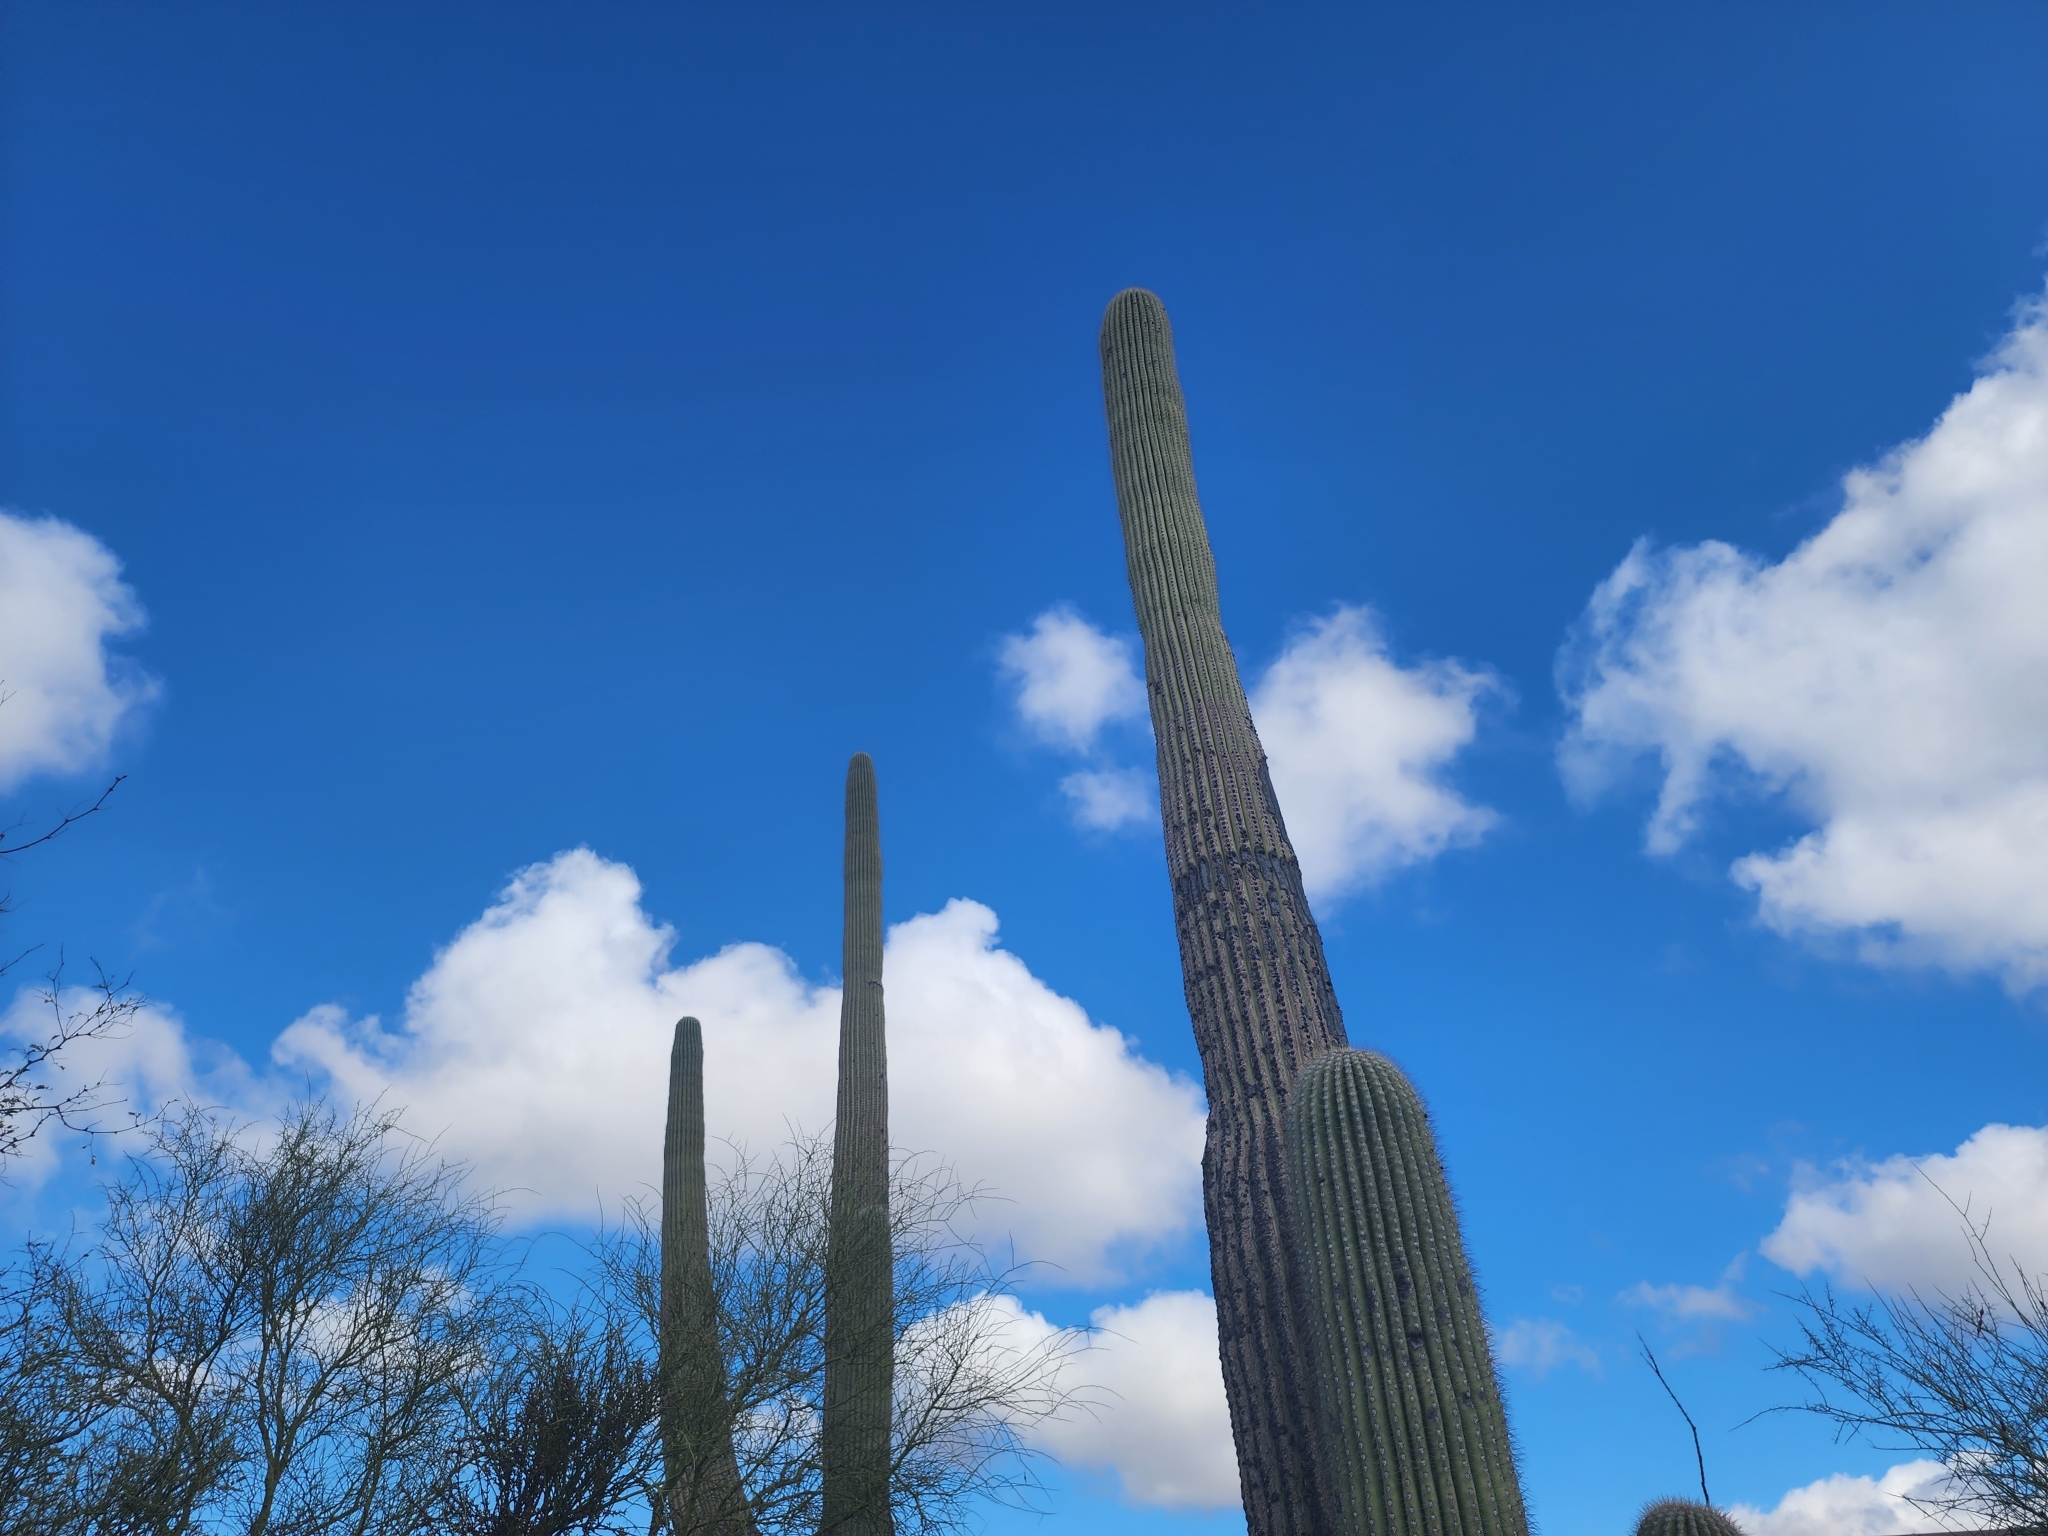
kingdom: Plantae
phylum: Tracheophyta
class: Magnoliopsida
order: Caryophyllales
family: Cactaceae
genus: Carnegiea
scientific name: Carnegiea gigantea
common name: Saguaro
